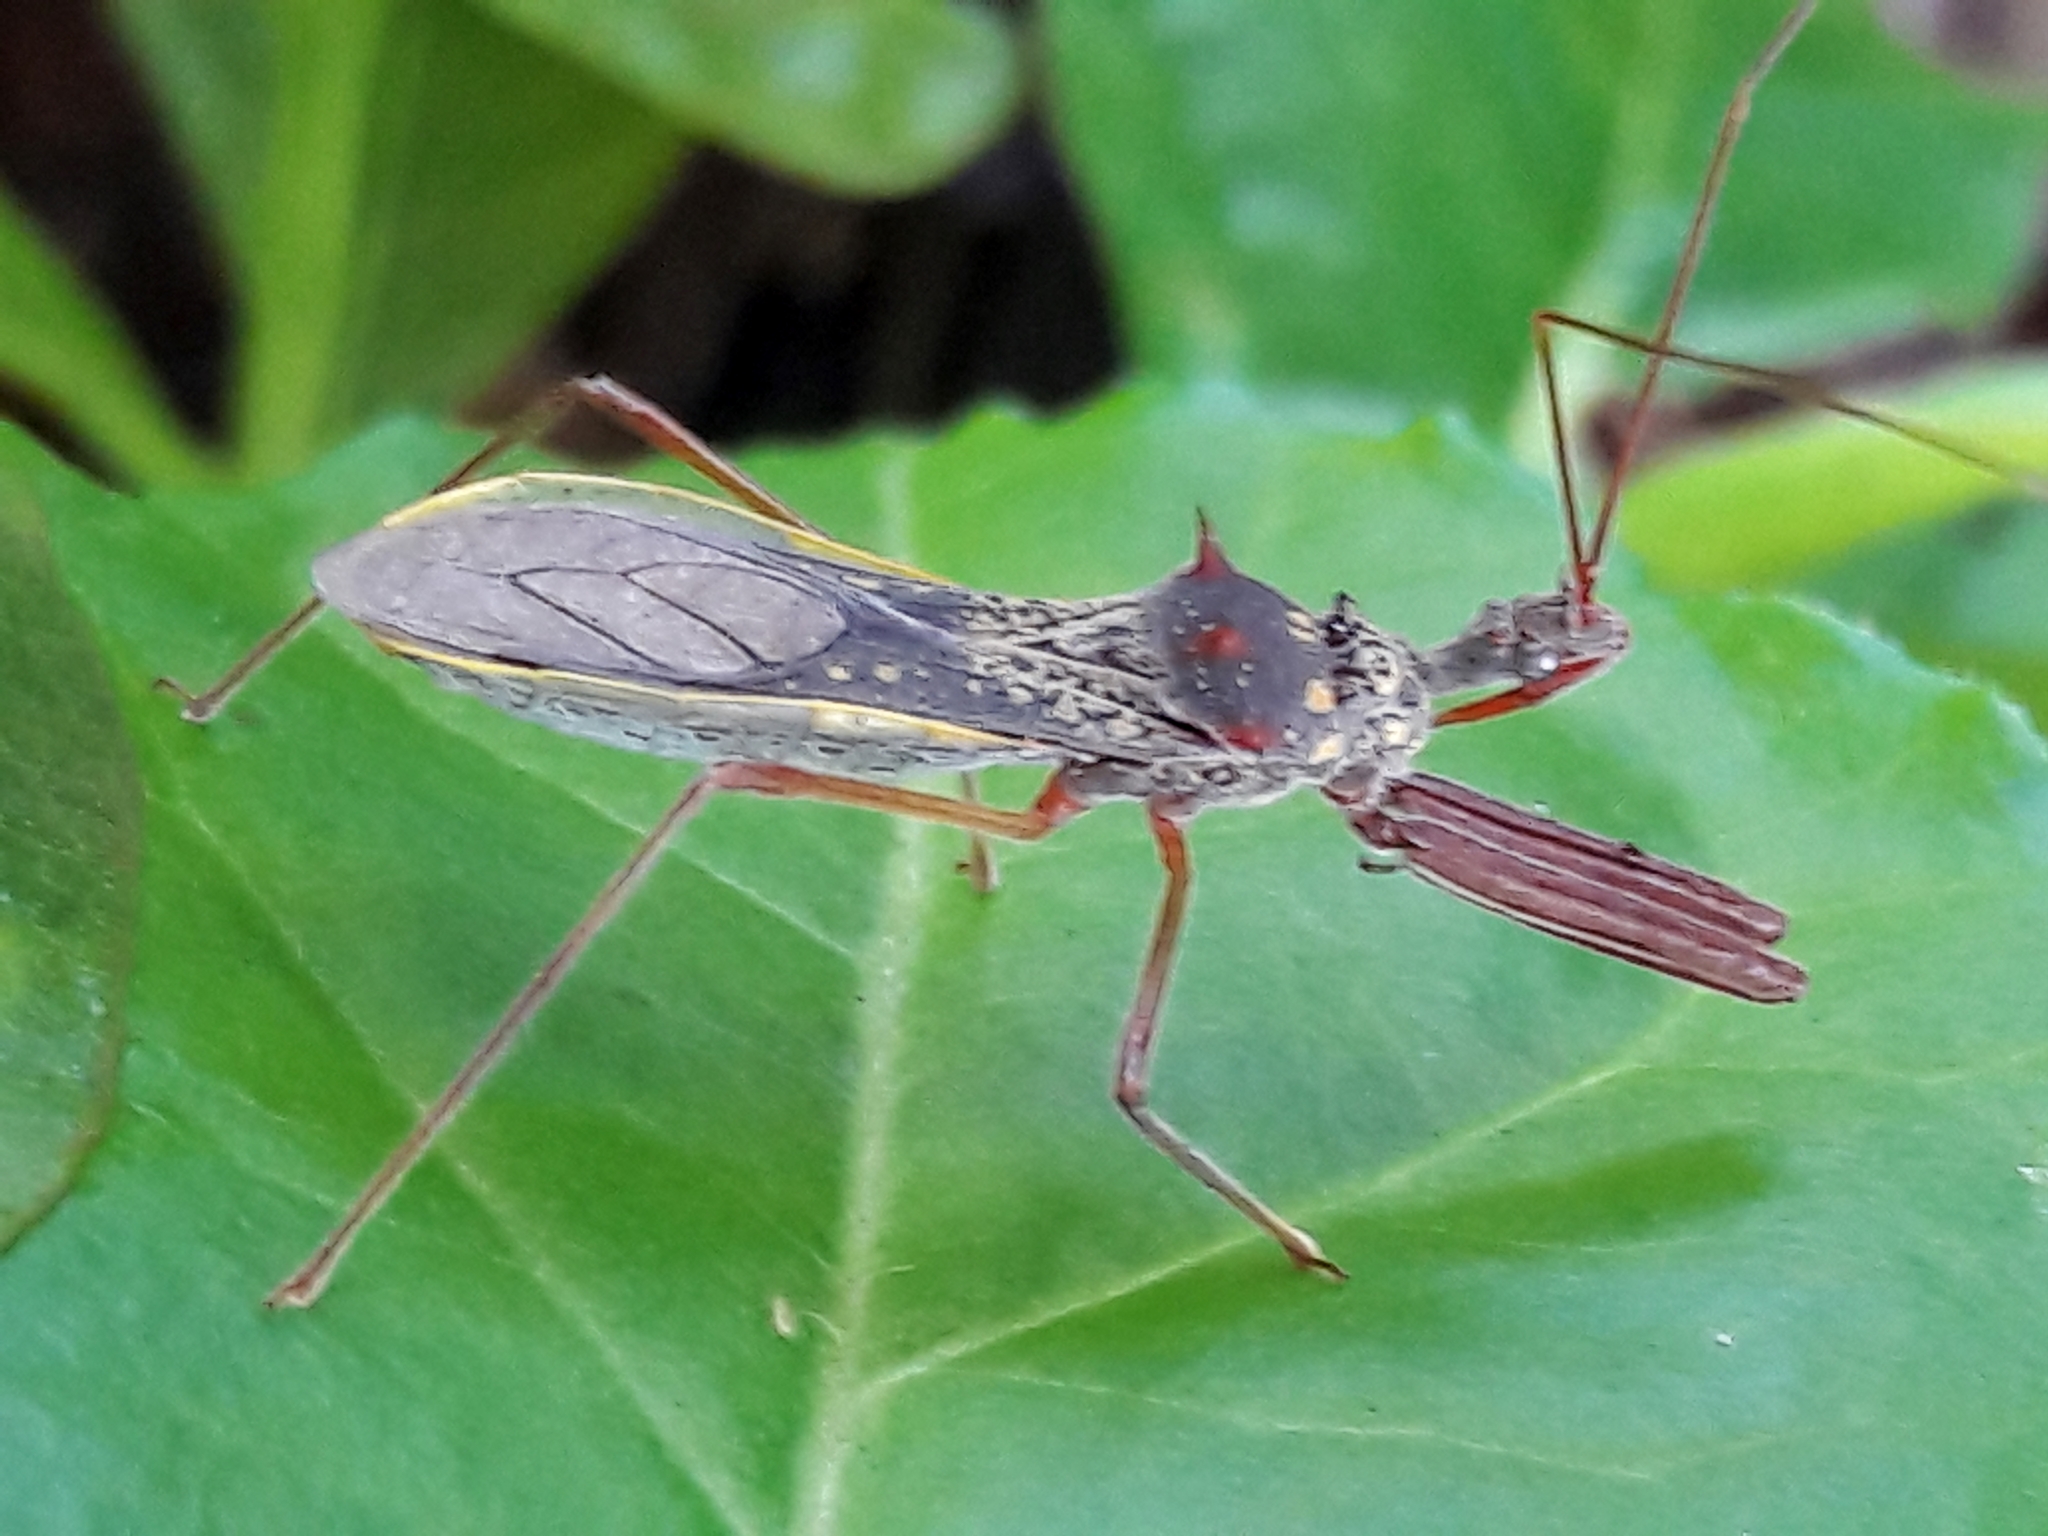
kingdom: Animalia
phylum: Arthropoda
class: Insecta
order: Hemiptera
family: Reduviidae
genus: Heza
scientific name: Heza binotata
